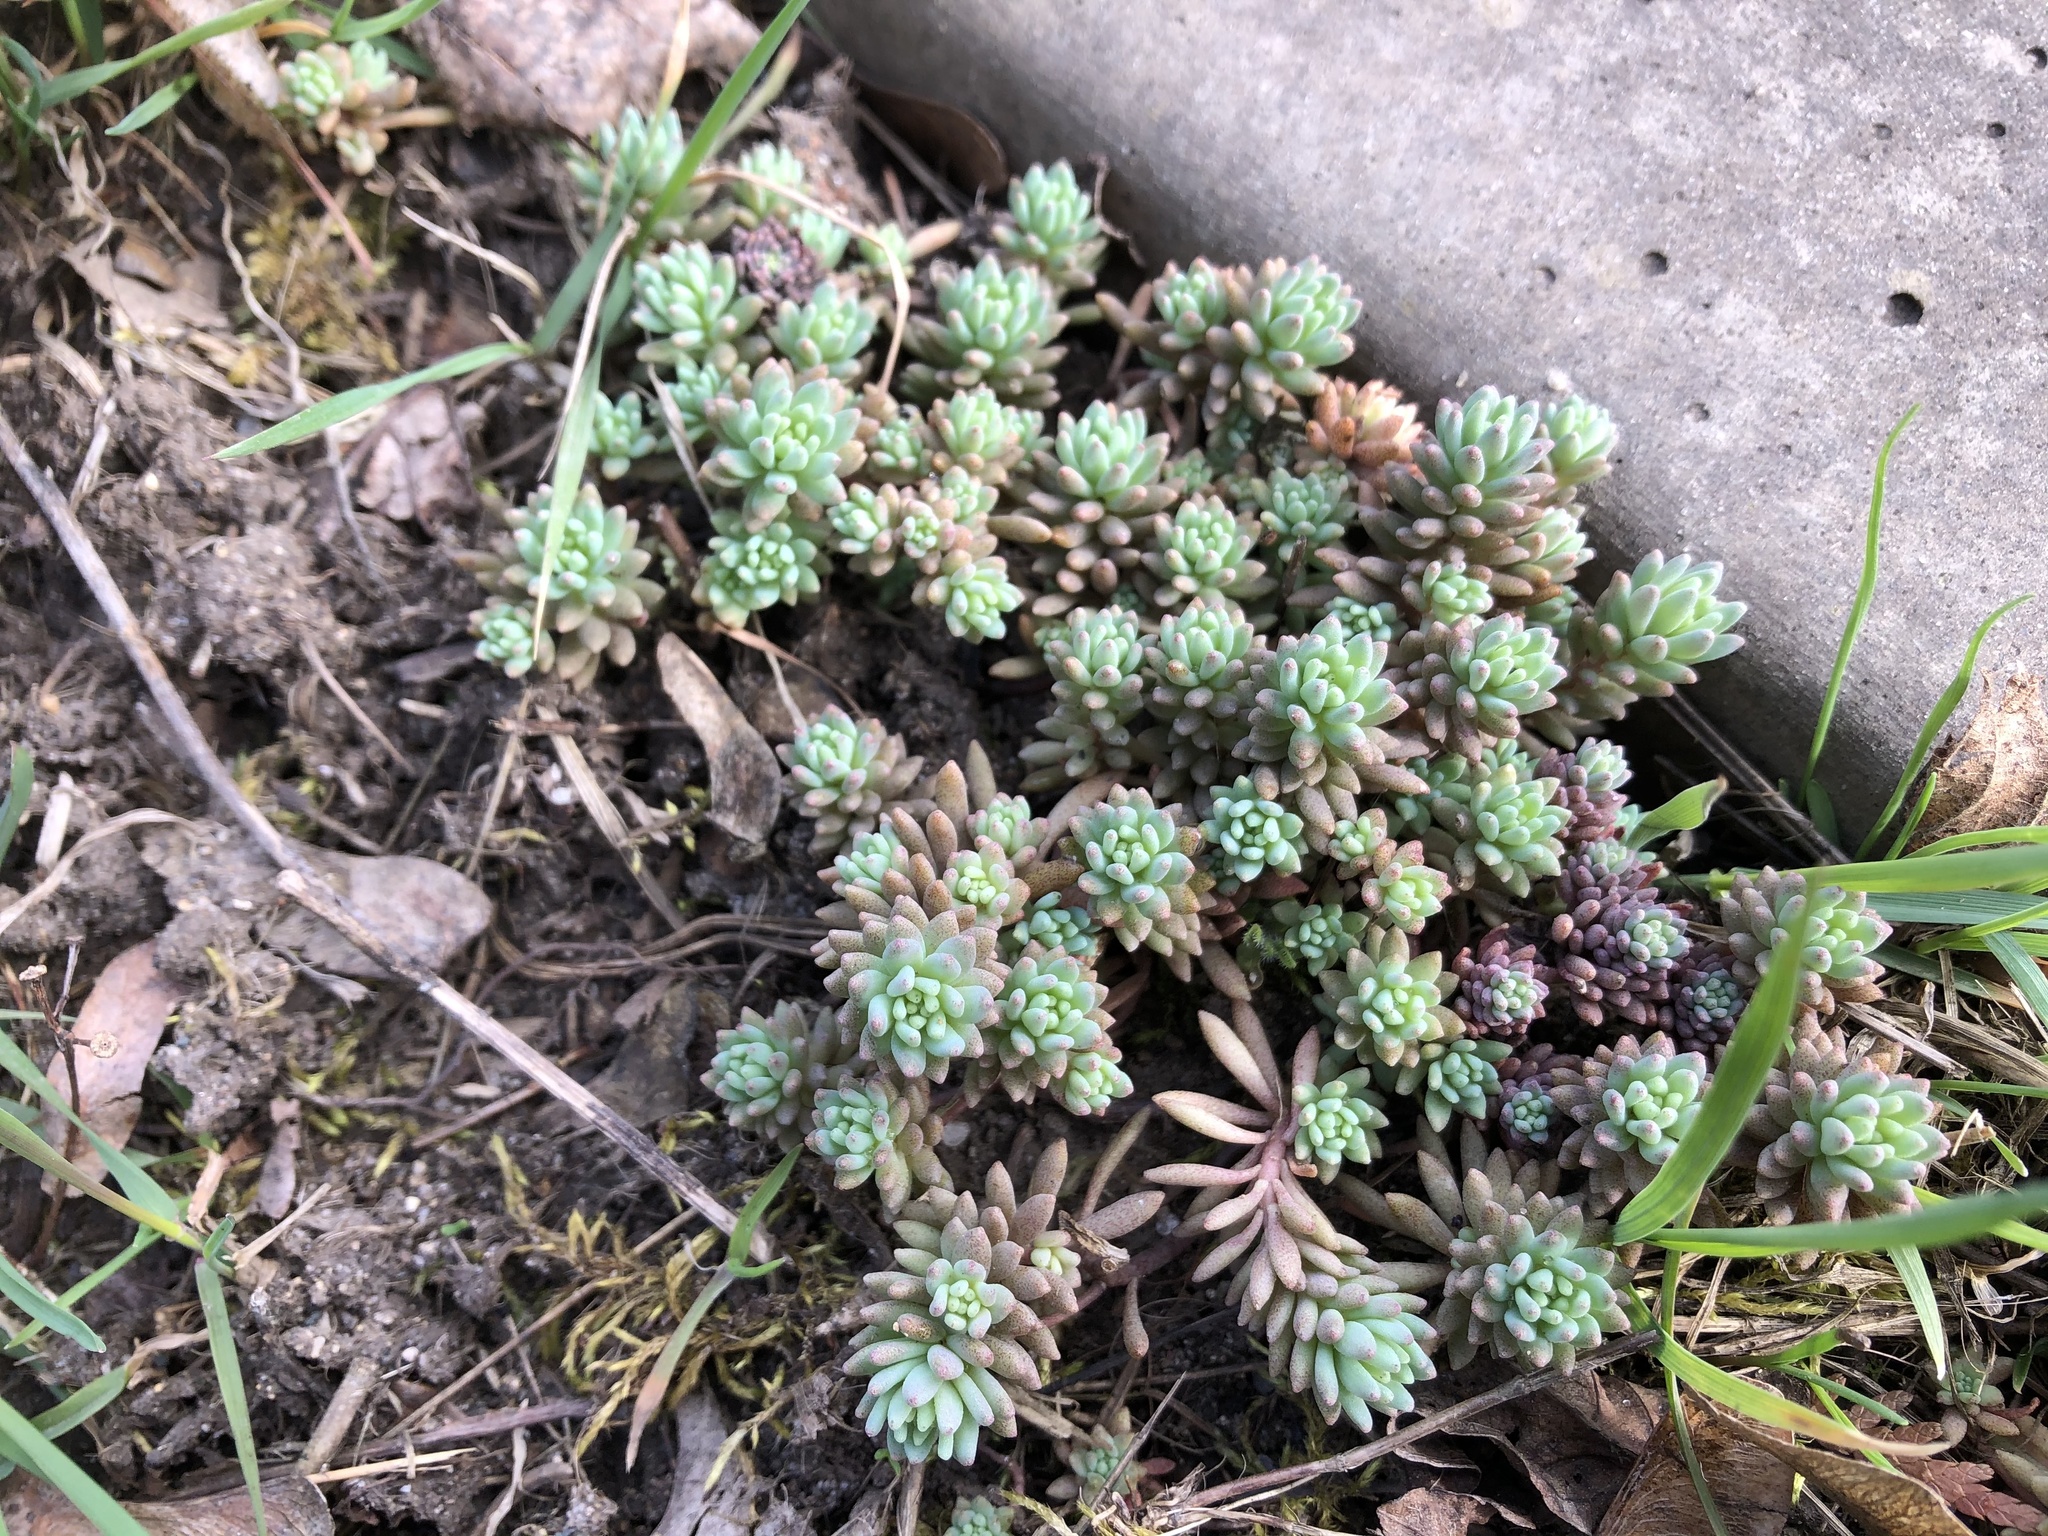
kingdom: Plantae
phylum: Tracheophyta
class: Magnoliopsida
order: Saxifragales
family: Crassulaceae
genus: Sedum
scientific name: Sedum hispanicum
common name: Spanish stonecrop
